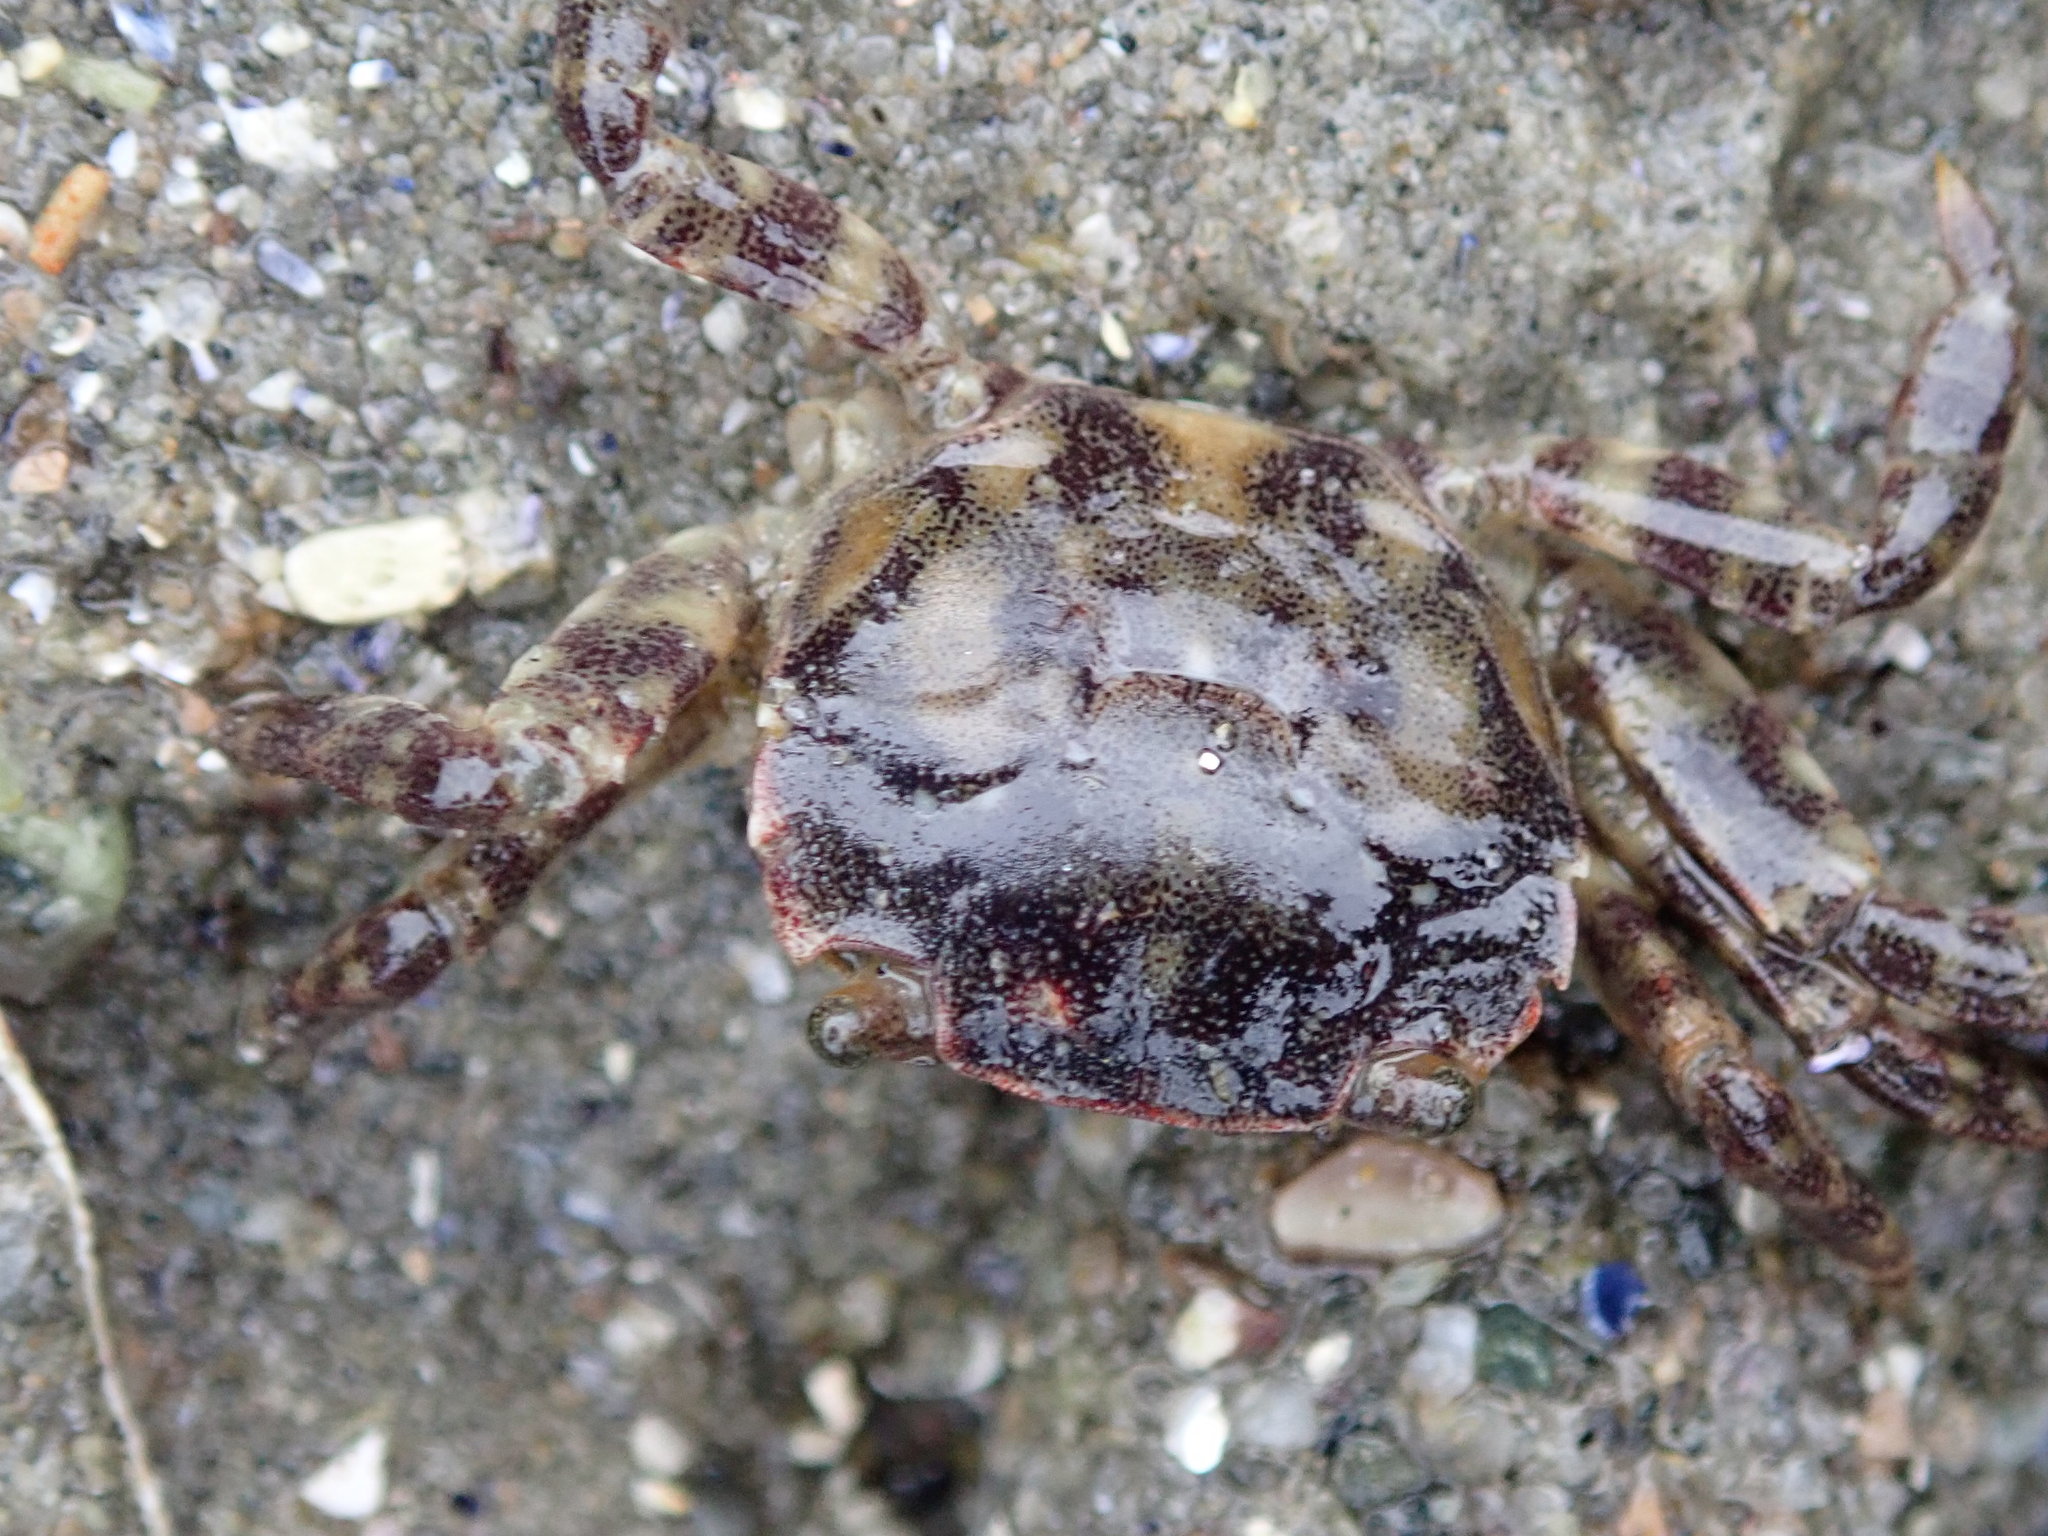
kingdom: Animalia
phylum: Arthropoda
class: Malacostraca
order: Decapoda
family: Varunidae
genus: Hemigrapsus
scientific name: Hemigrapsus sanguineus
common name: Asian shore crab
